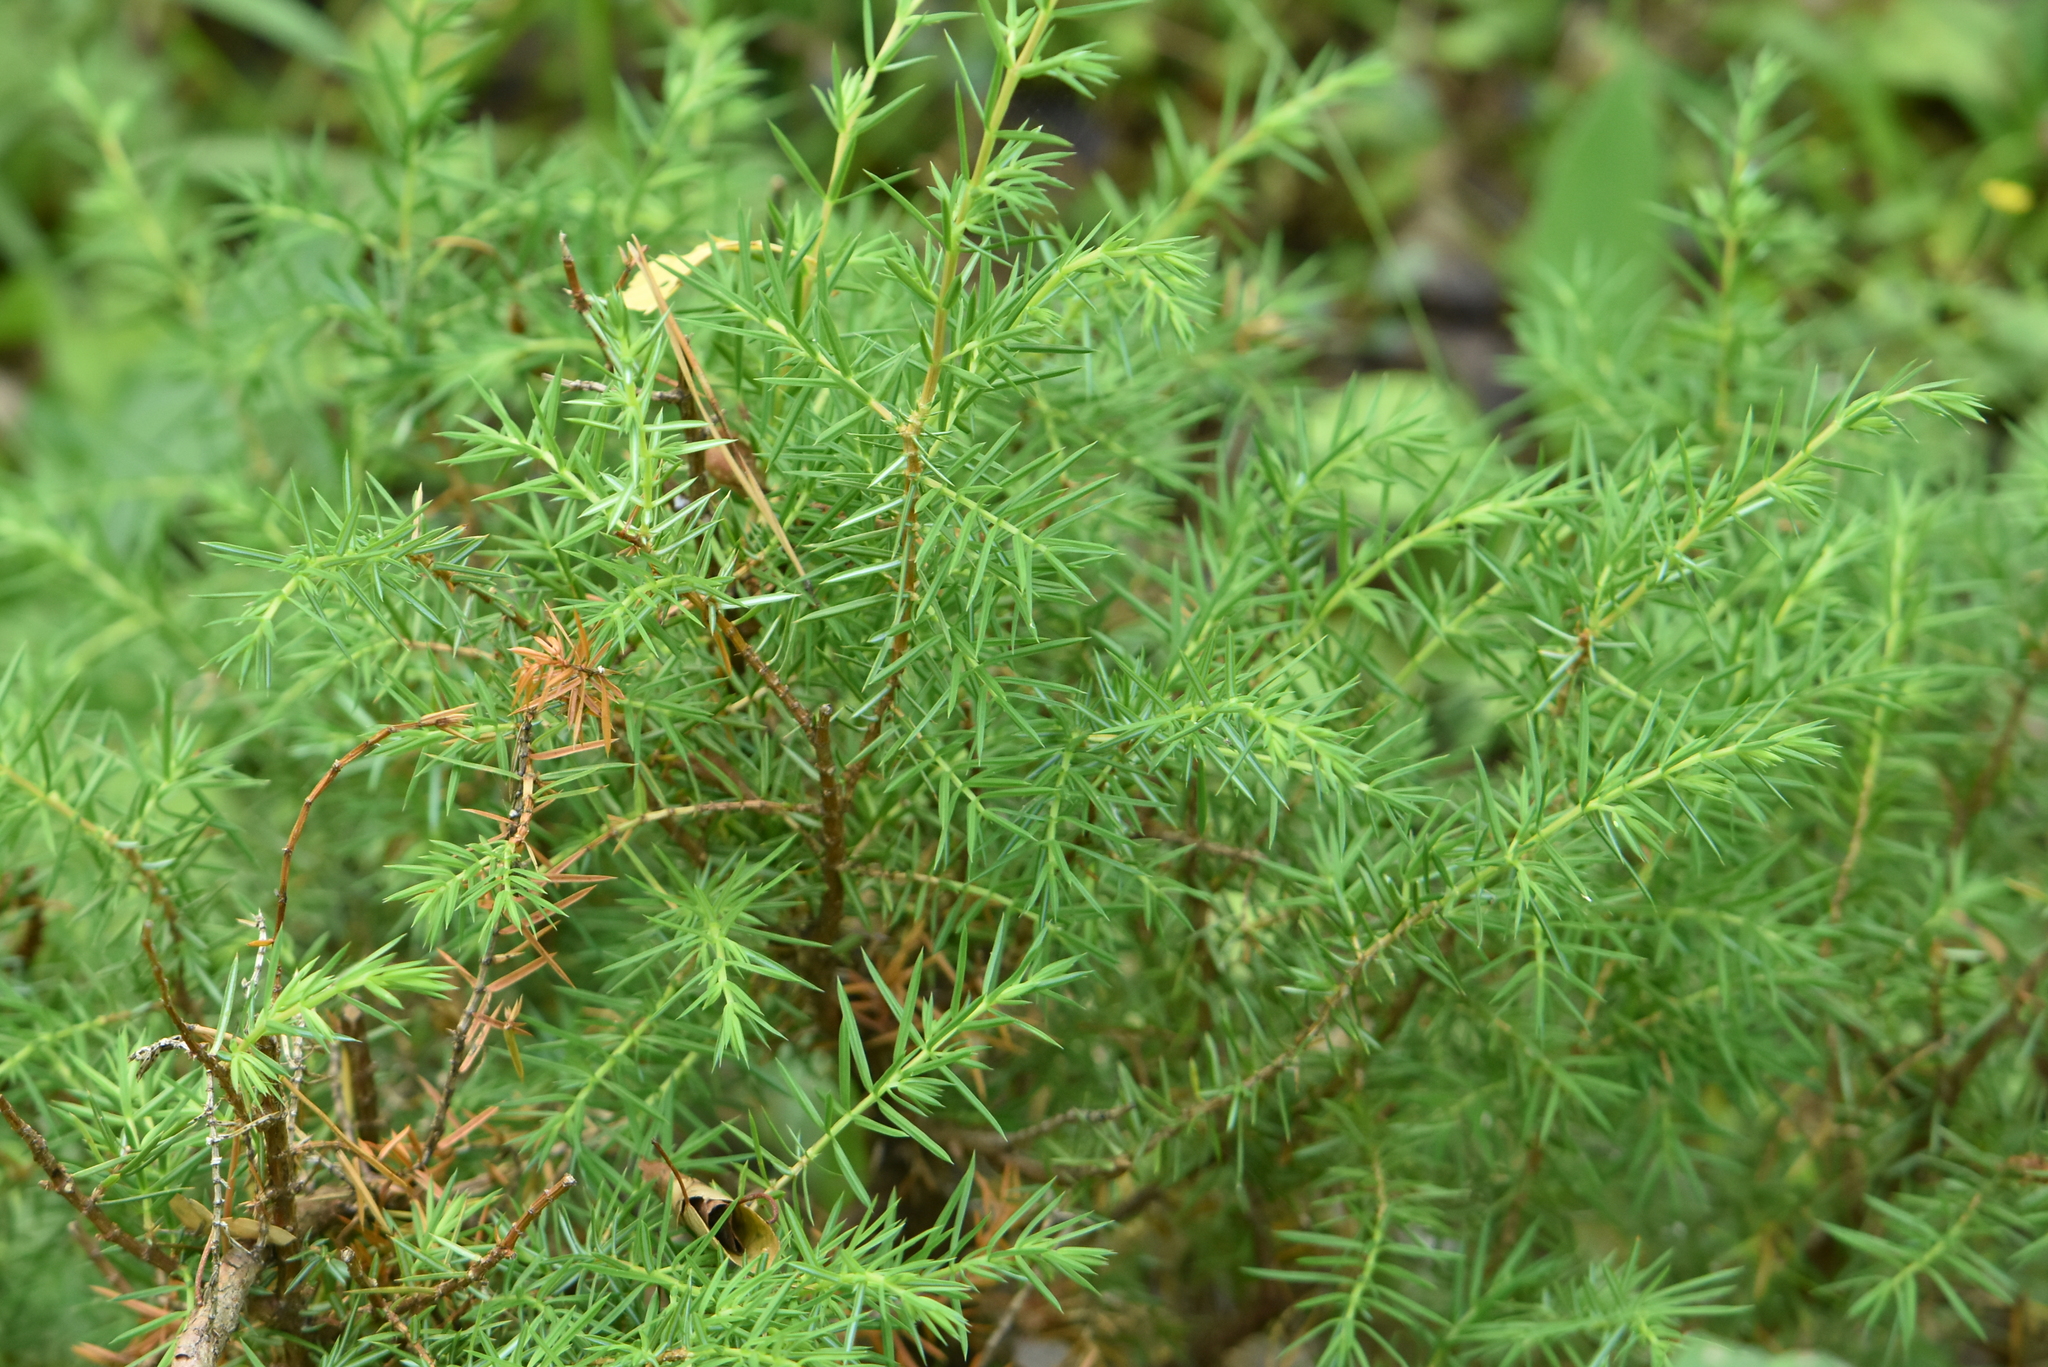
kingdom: Plantae
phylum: Tracheophyta
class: Pinopsida
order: Pinales
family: Cupressaceae
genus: Juniperus
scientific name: Juniperus communis
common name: Common juniper
